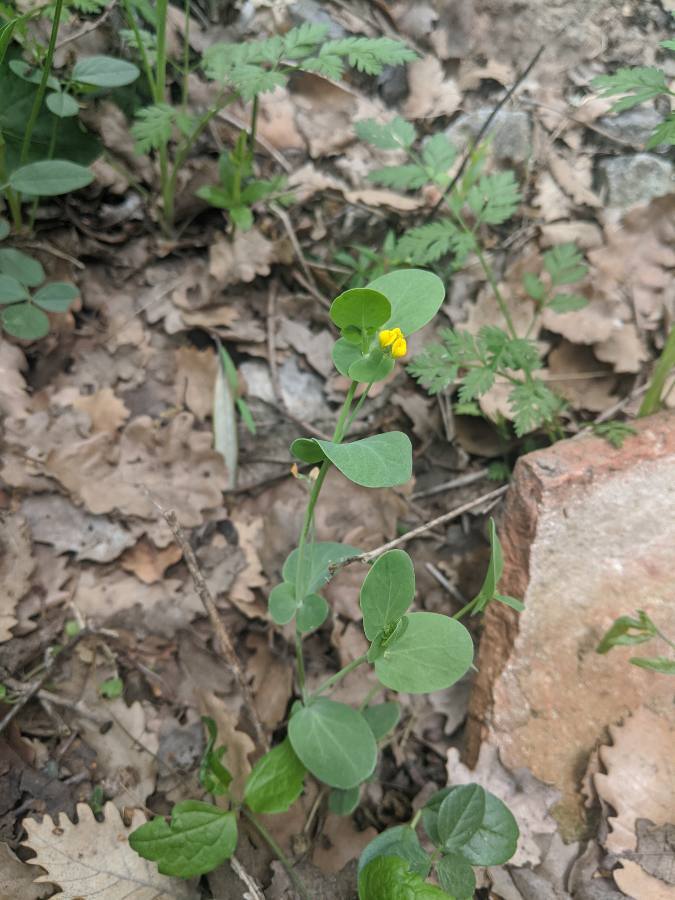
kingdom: Plantae
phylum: Tracheophyta
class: Magnoliopsida
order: Fabales
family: Fabaceae
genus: Coronilla
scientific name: Coronilla scorpioides
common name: Annual scorpion-vetch
